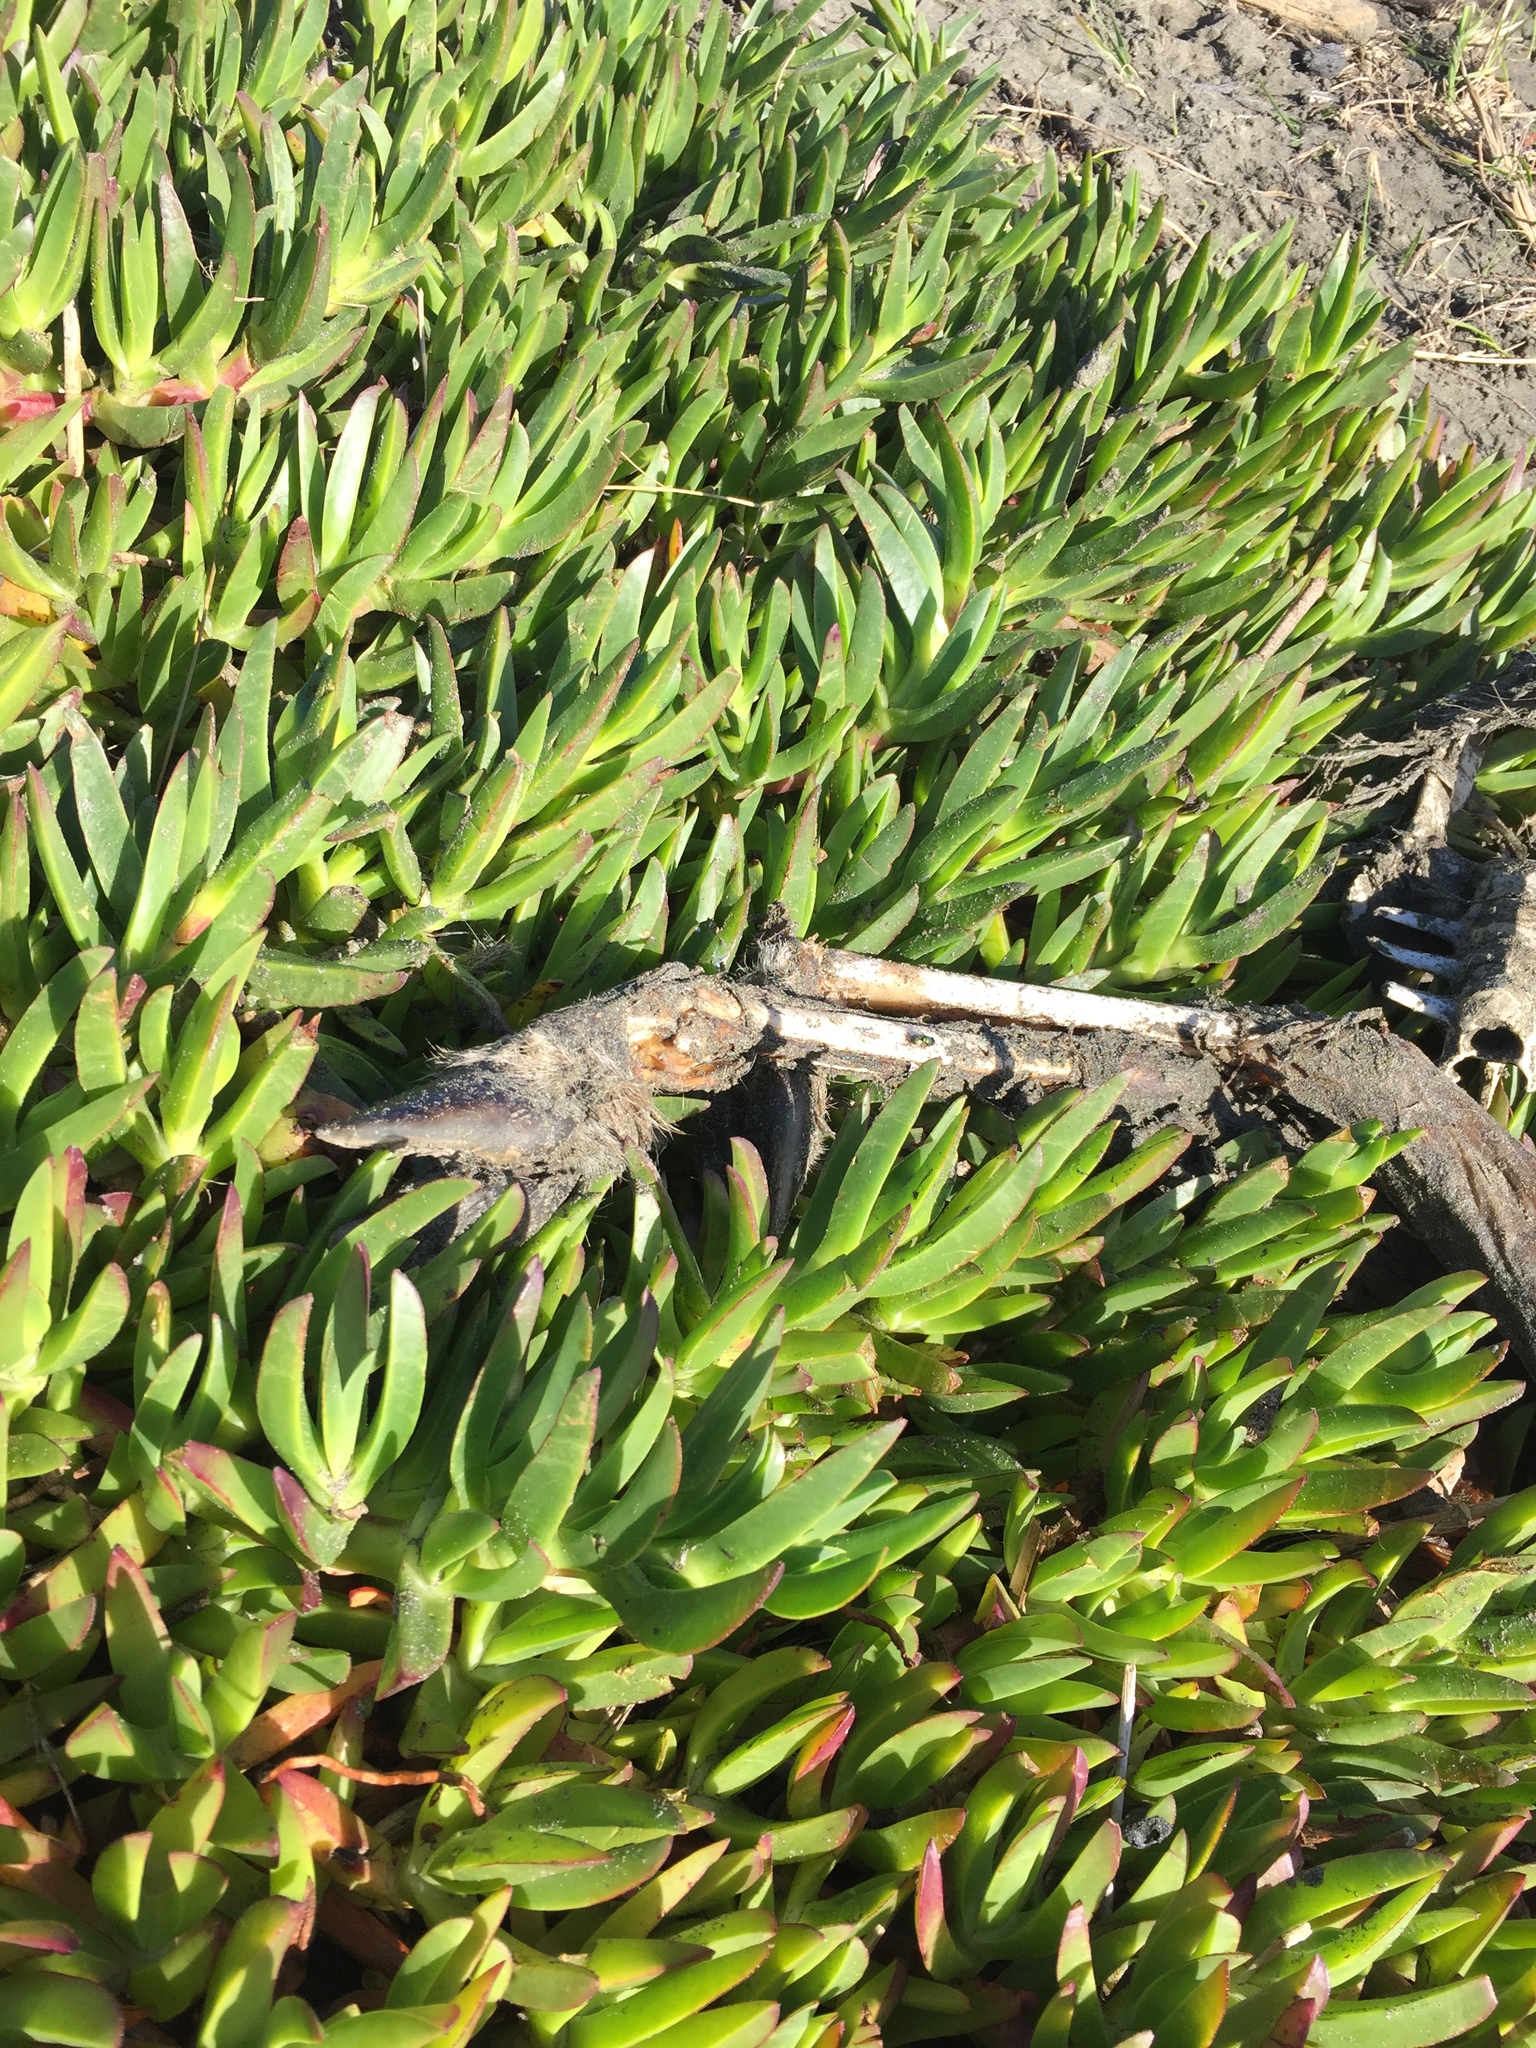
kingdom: Animalia
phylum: Chordata
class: Mammalia
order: Artiodactyla
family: Cervidae
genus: Odocoileus
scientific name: Odocoileus hemionus
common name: Mule deer
